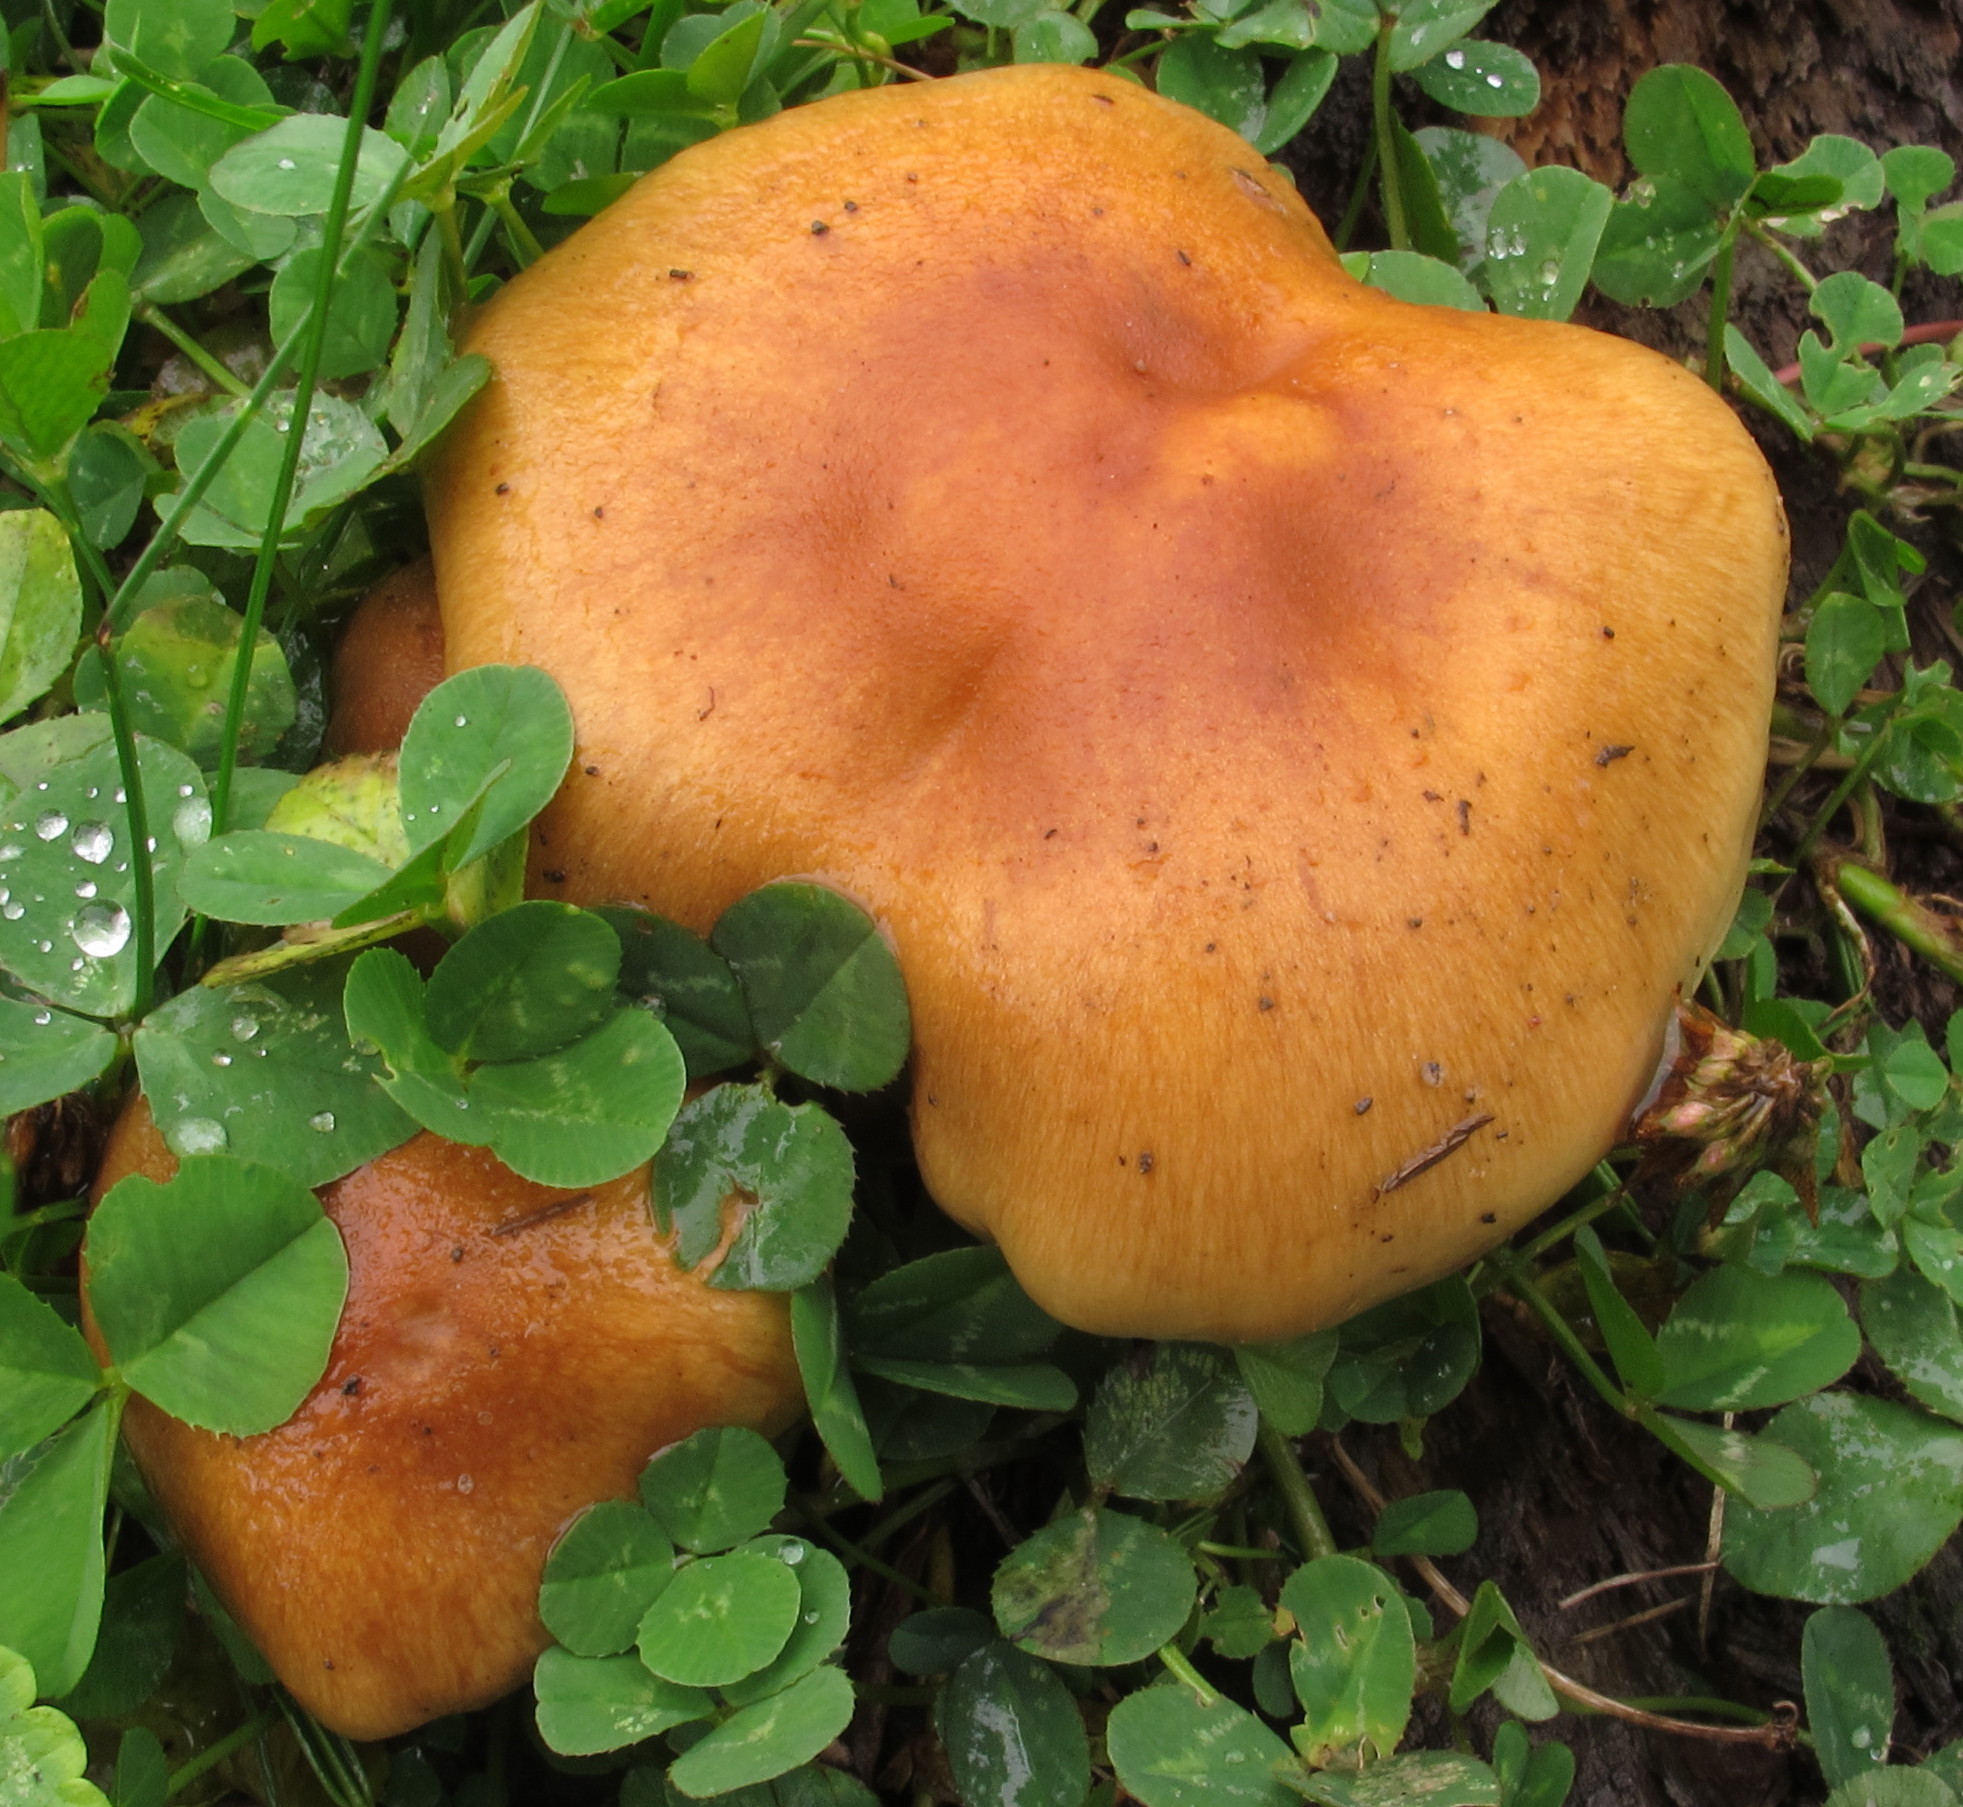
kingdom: Fungi
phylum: Basidiomycota
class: Agaricomycetes
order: Agaricales
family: Strophariaceae
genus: Pholiota
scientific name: Pholiota spumosa
